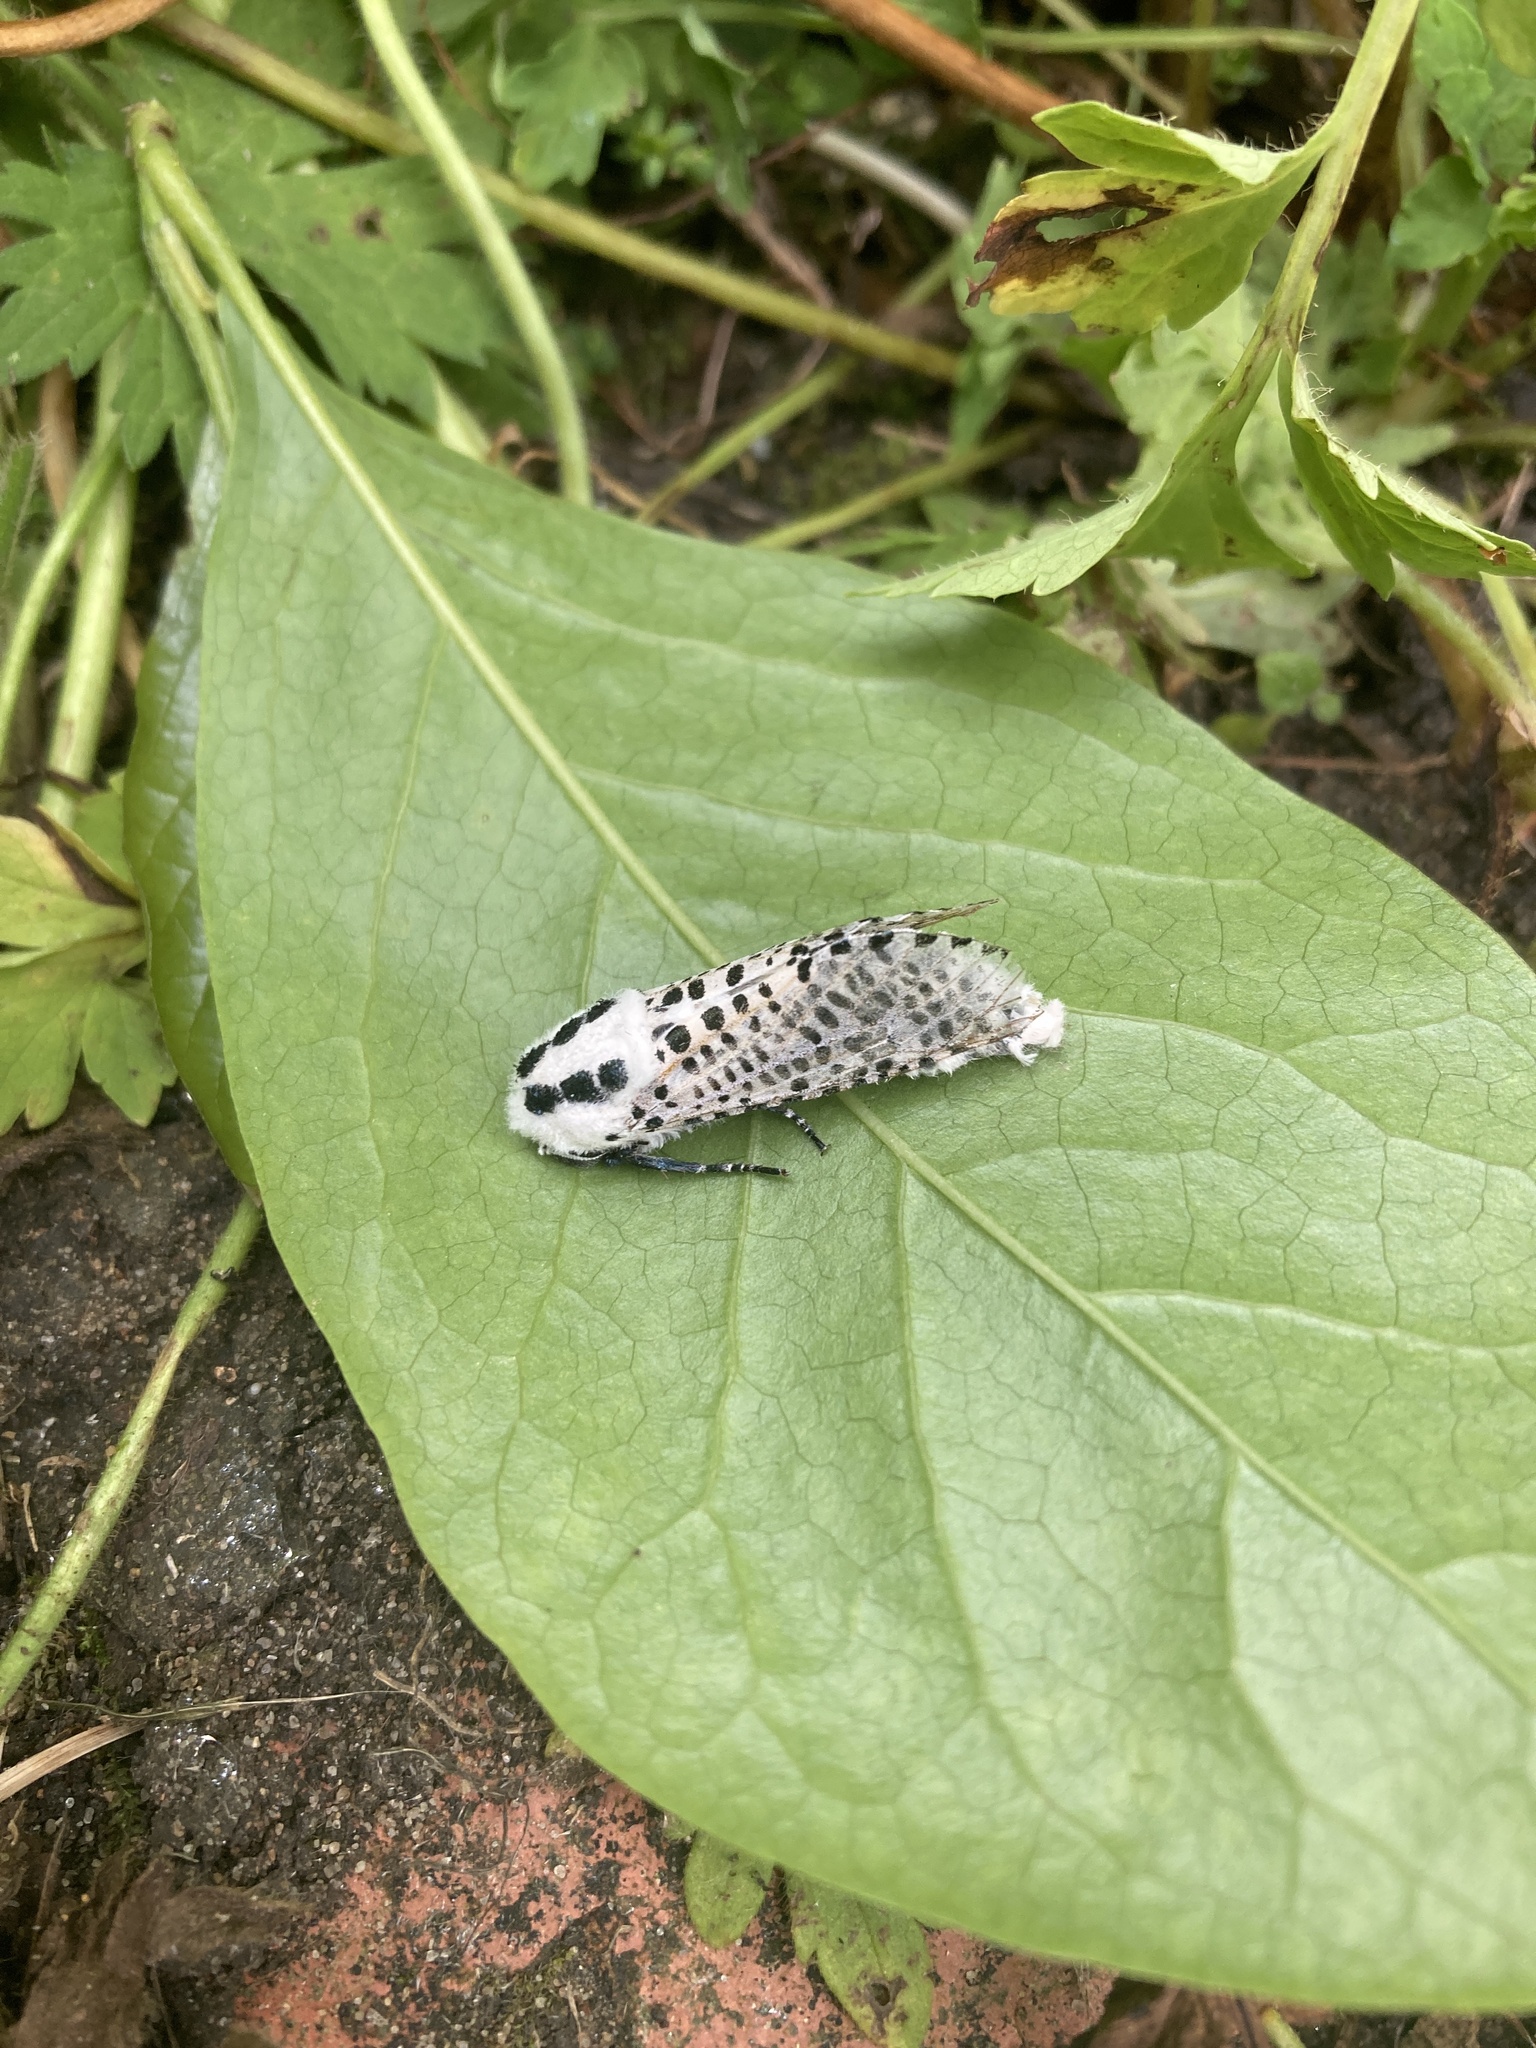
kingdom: Animalia
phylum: Arthropoda
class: Insecta
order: Lepidoptera
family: Cossidae
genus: Zeuzera
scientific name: Zeuzera pyrina
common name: Leopard moth
